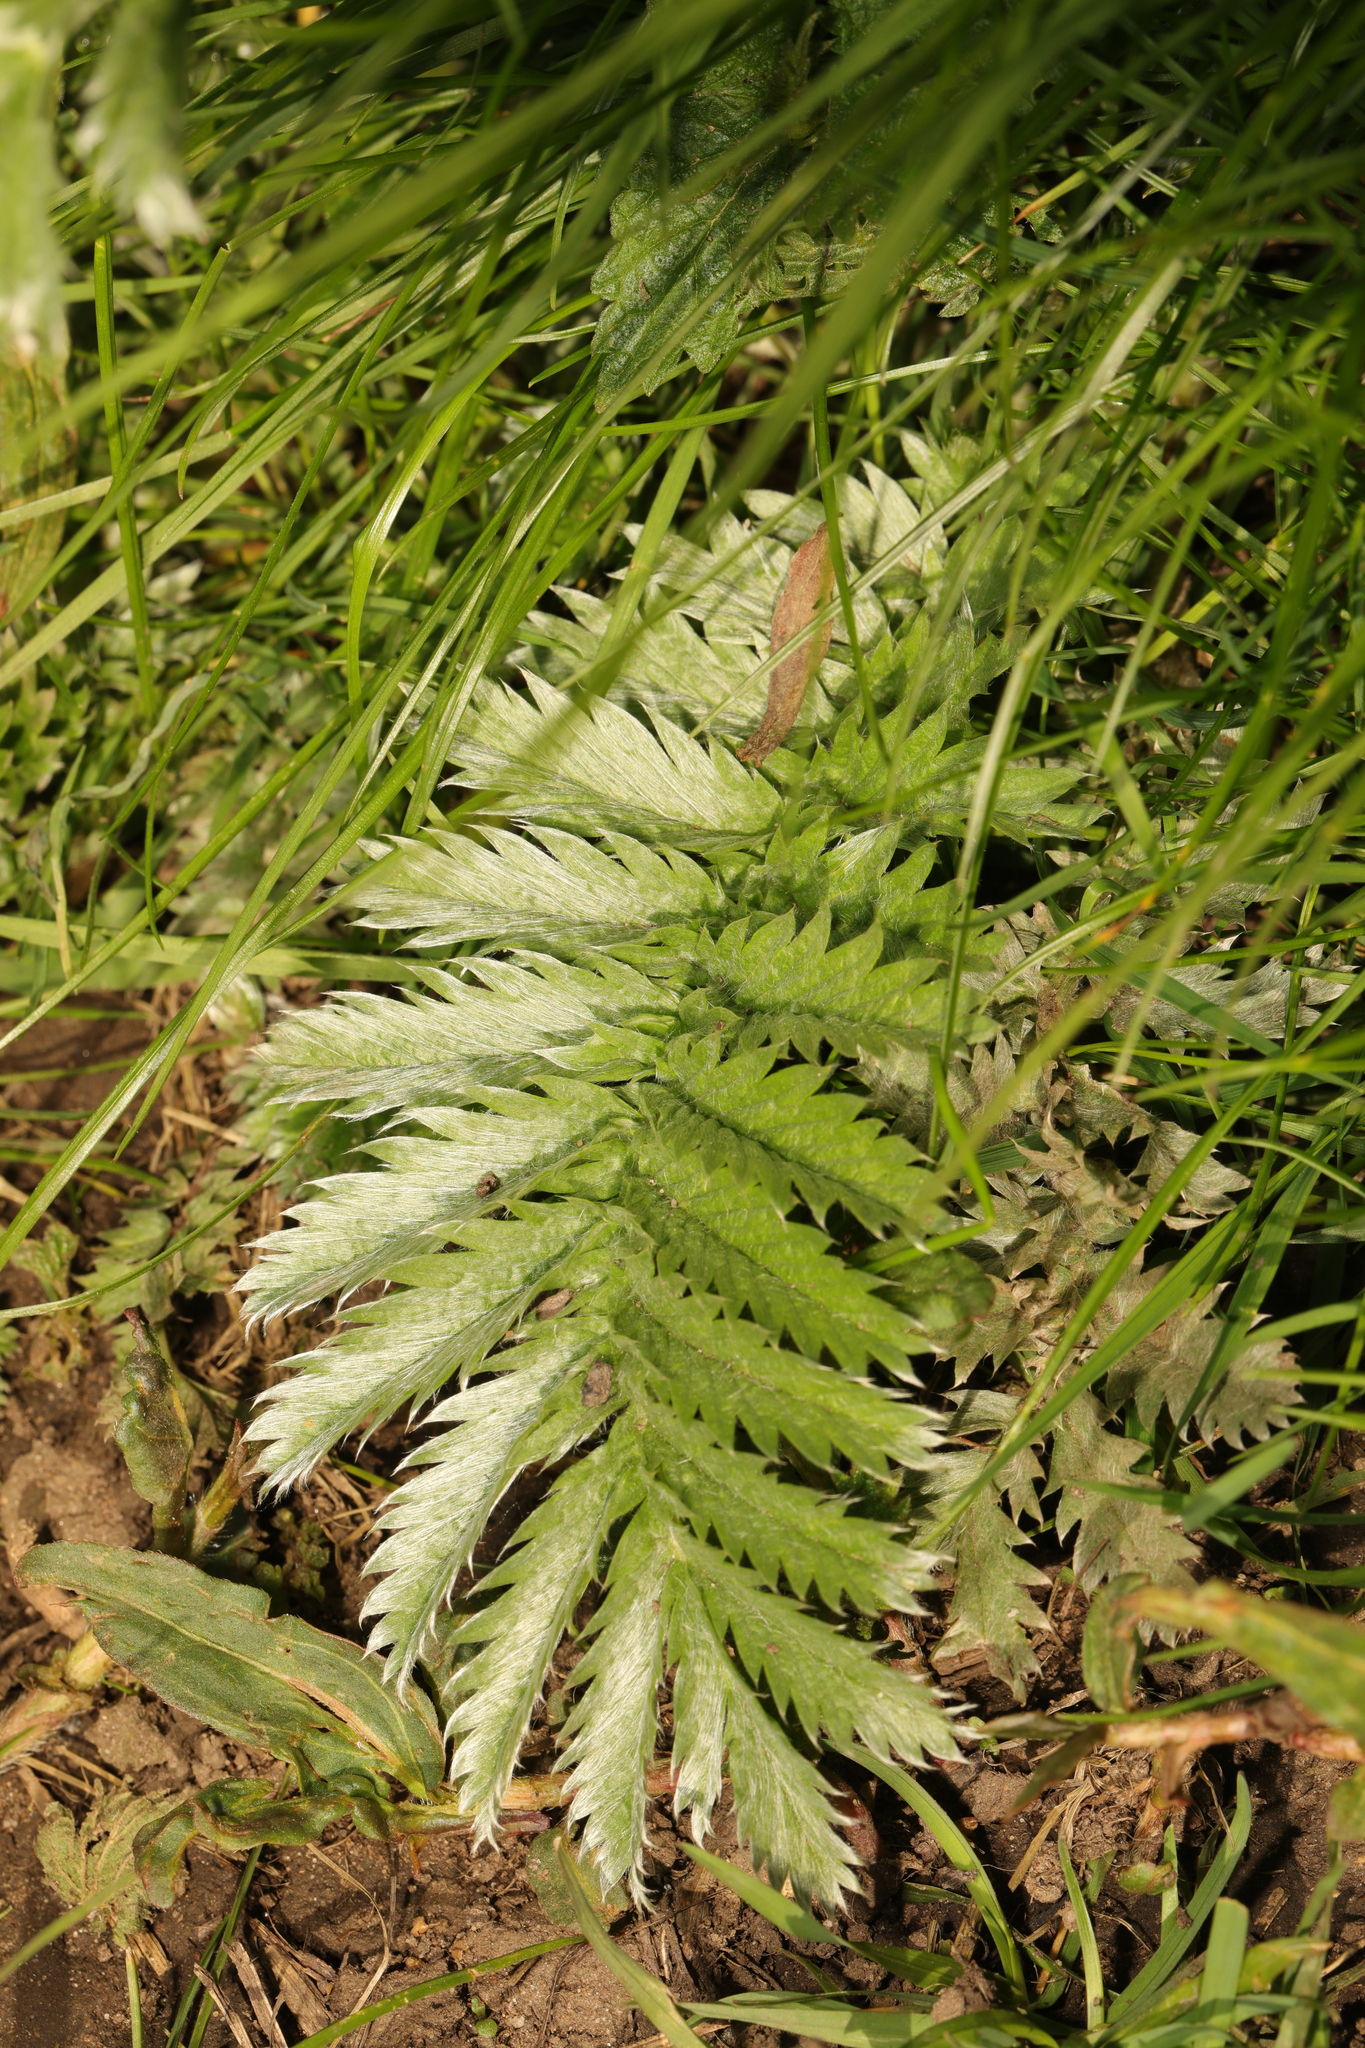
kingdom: Plantae
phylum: Tracheophyta
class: Magnoliopsida
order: Rosales
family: Rosaceae
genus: Argentina
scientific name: Argentina anserina
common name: Common silverweed
